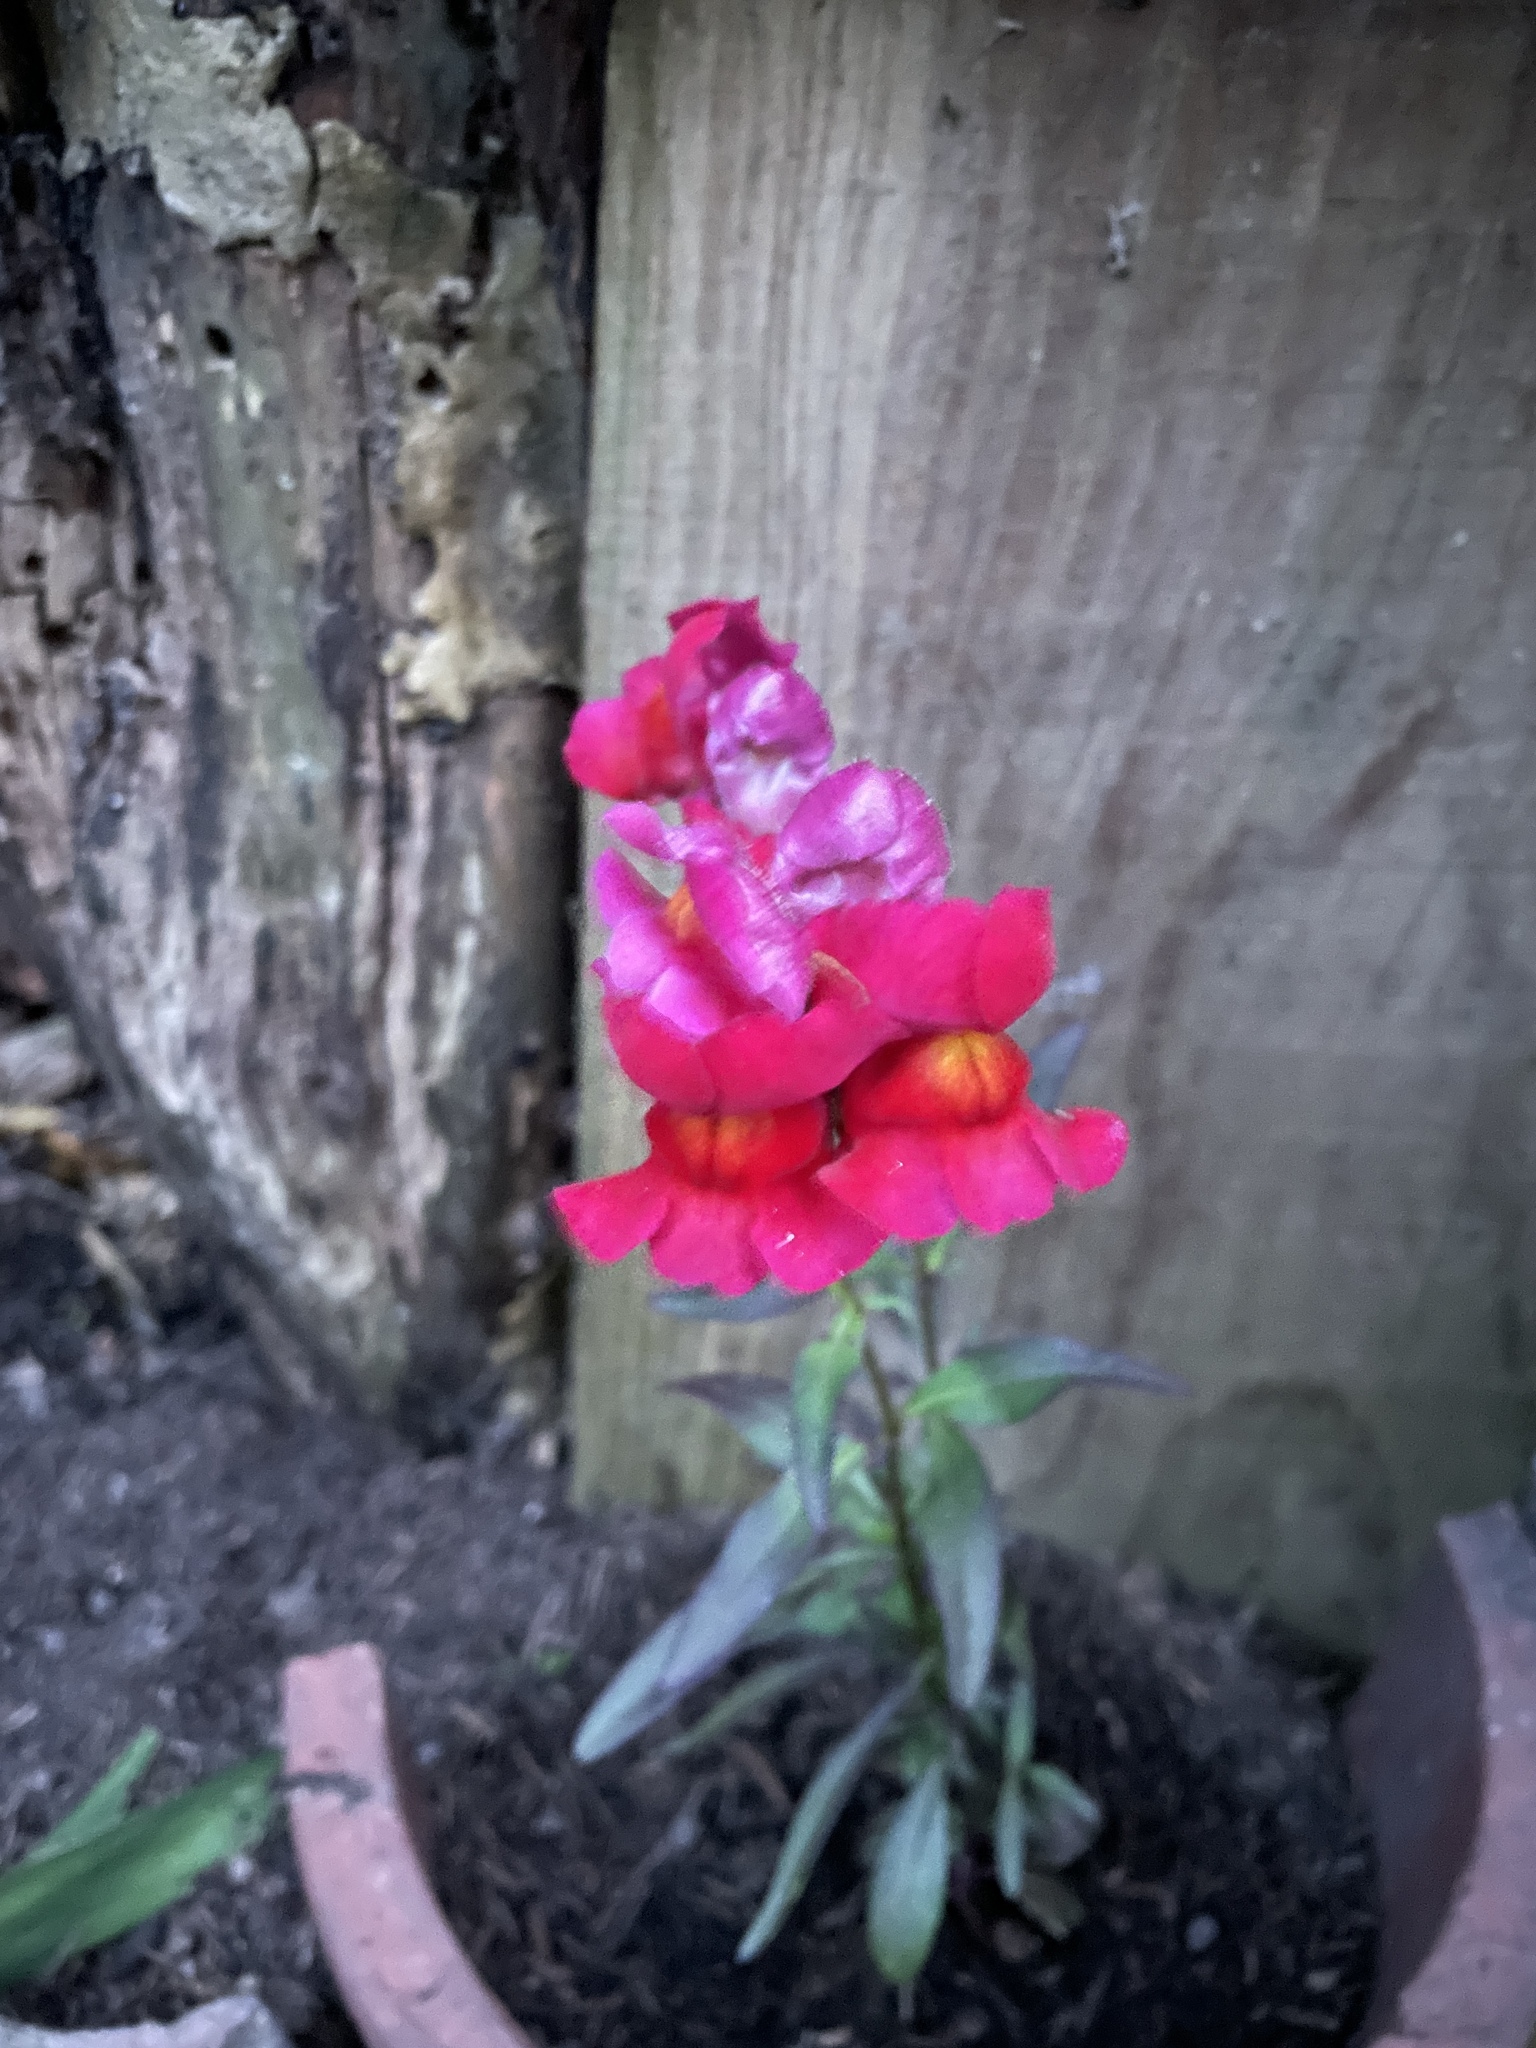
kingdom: Plantae
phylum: Tracheophyta
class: Magnoliopsida
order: Lamiales
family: Plantaginaceae
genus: Antirrhinum
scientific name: Antirrhinum majus
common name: Snapdragon
